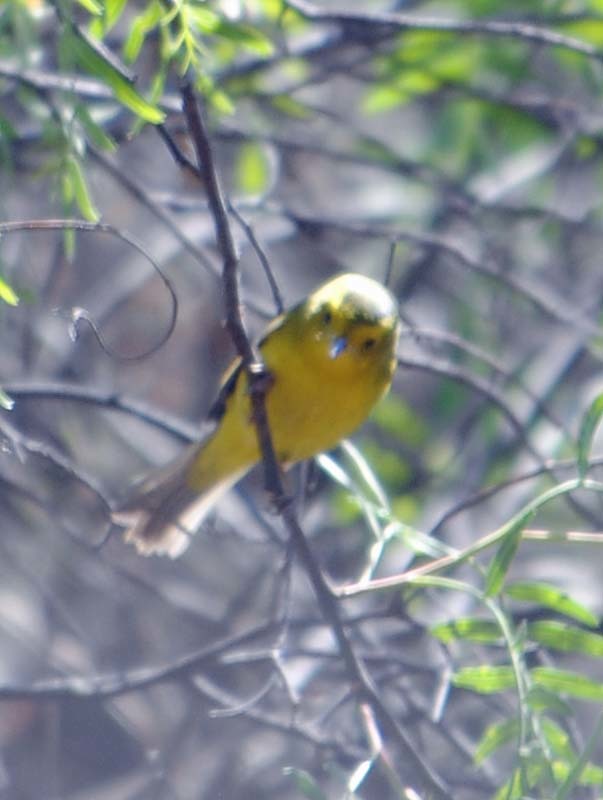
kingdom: Animalia
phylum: Chordata
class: Aves
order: Passeriformes
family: Parulidae
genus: Cardellina
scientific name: Cardellina pusilla
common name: Wilson's warbler
